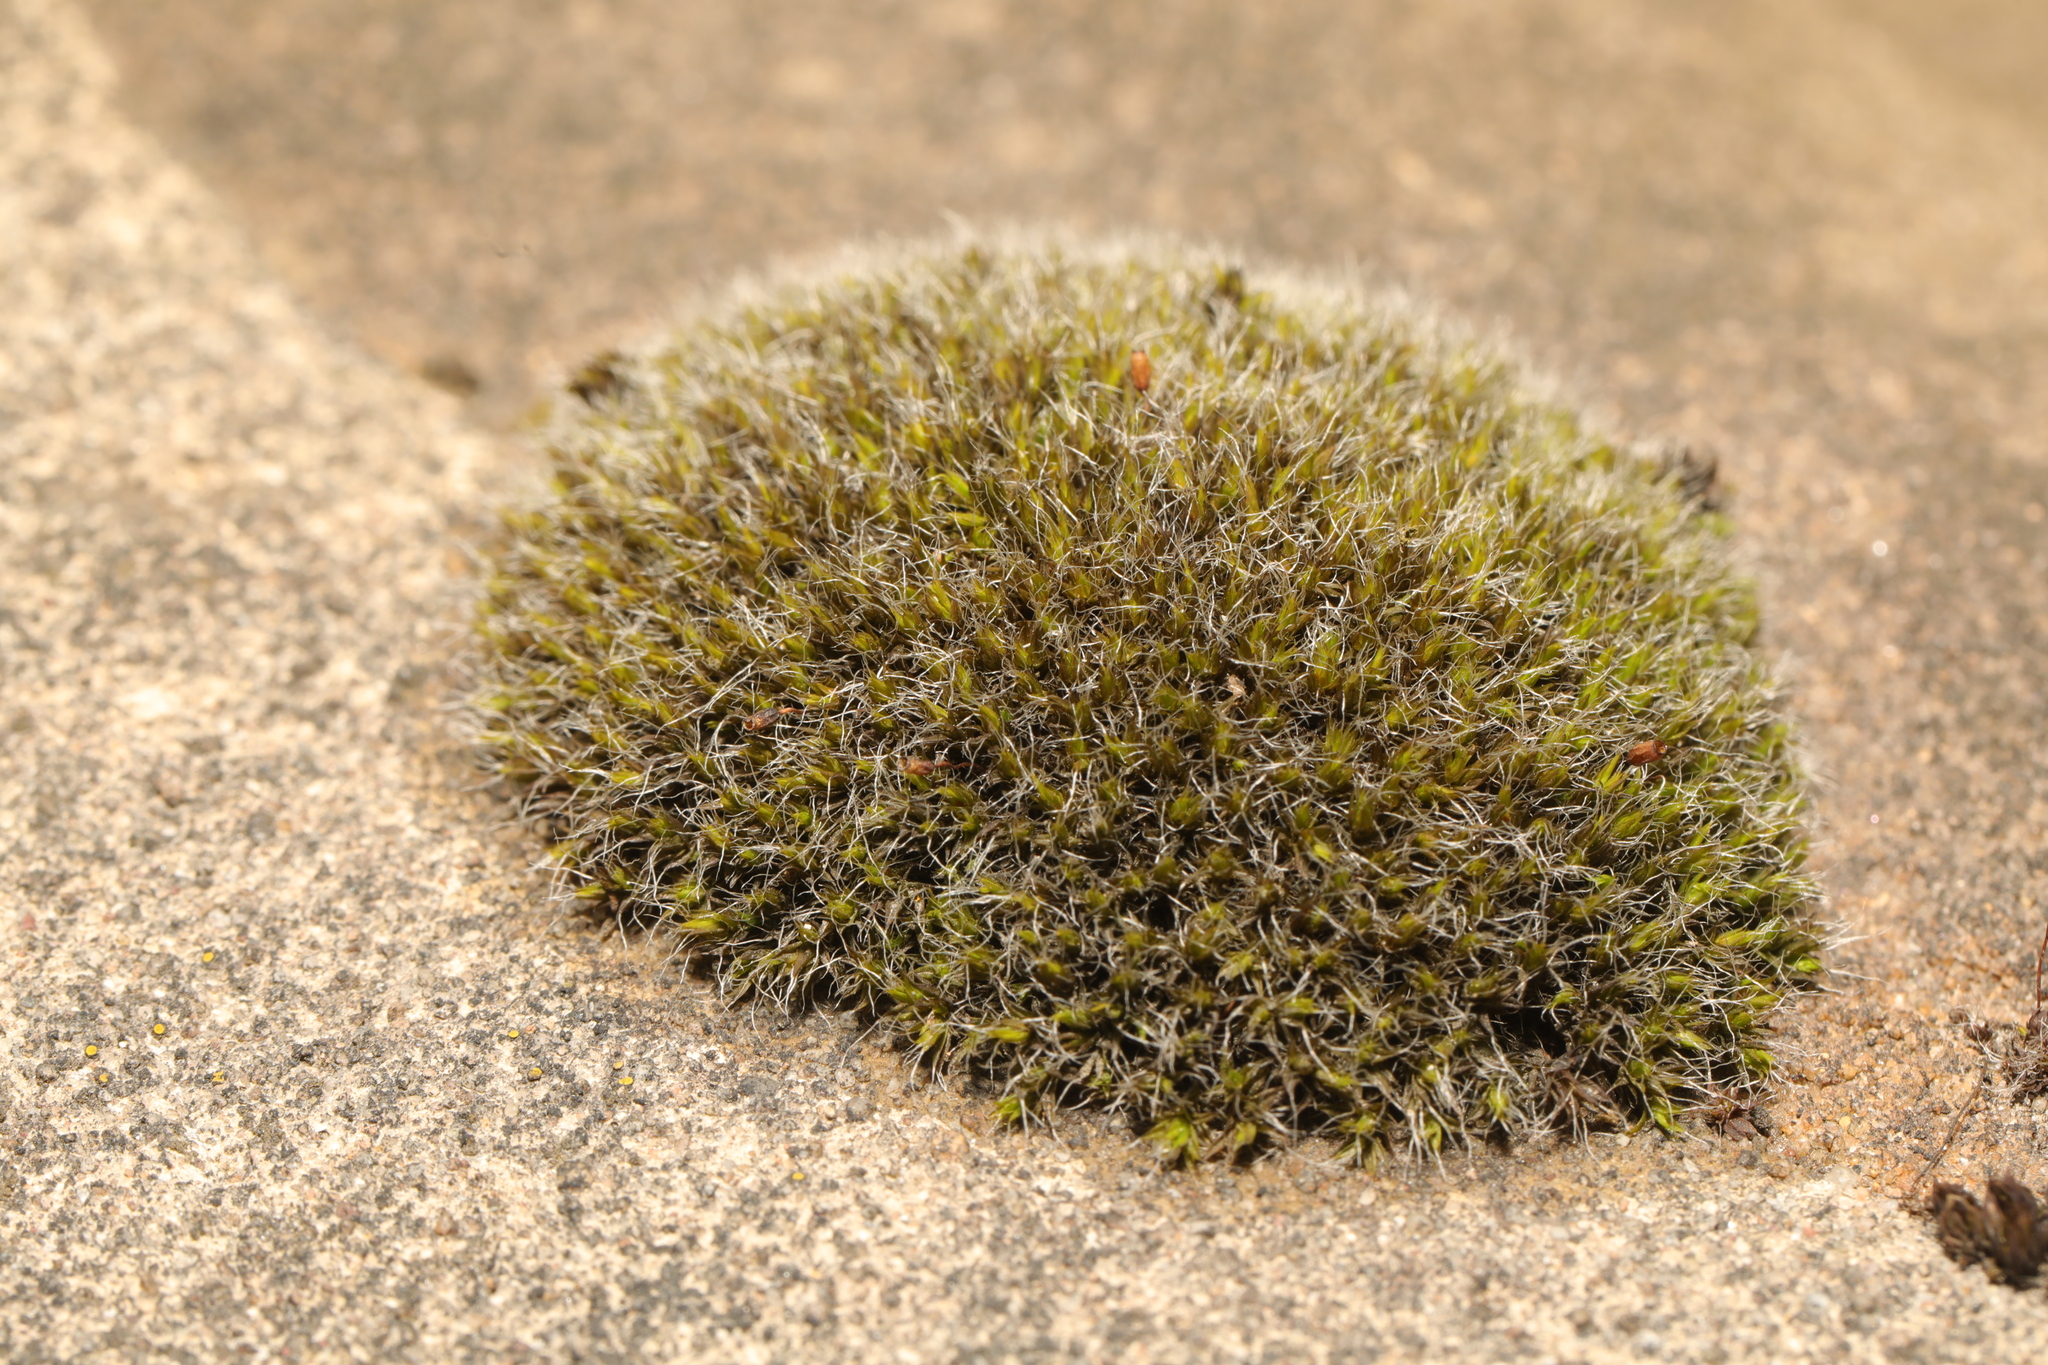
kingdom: Plantae
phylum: Bryophyta
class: Bryopsida
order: Grimmiales
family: Grimmiaceae
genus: Grimmia
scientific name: Grimmia pulvinata
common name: Grey-cushioned grimmia
